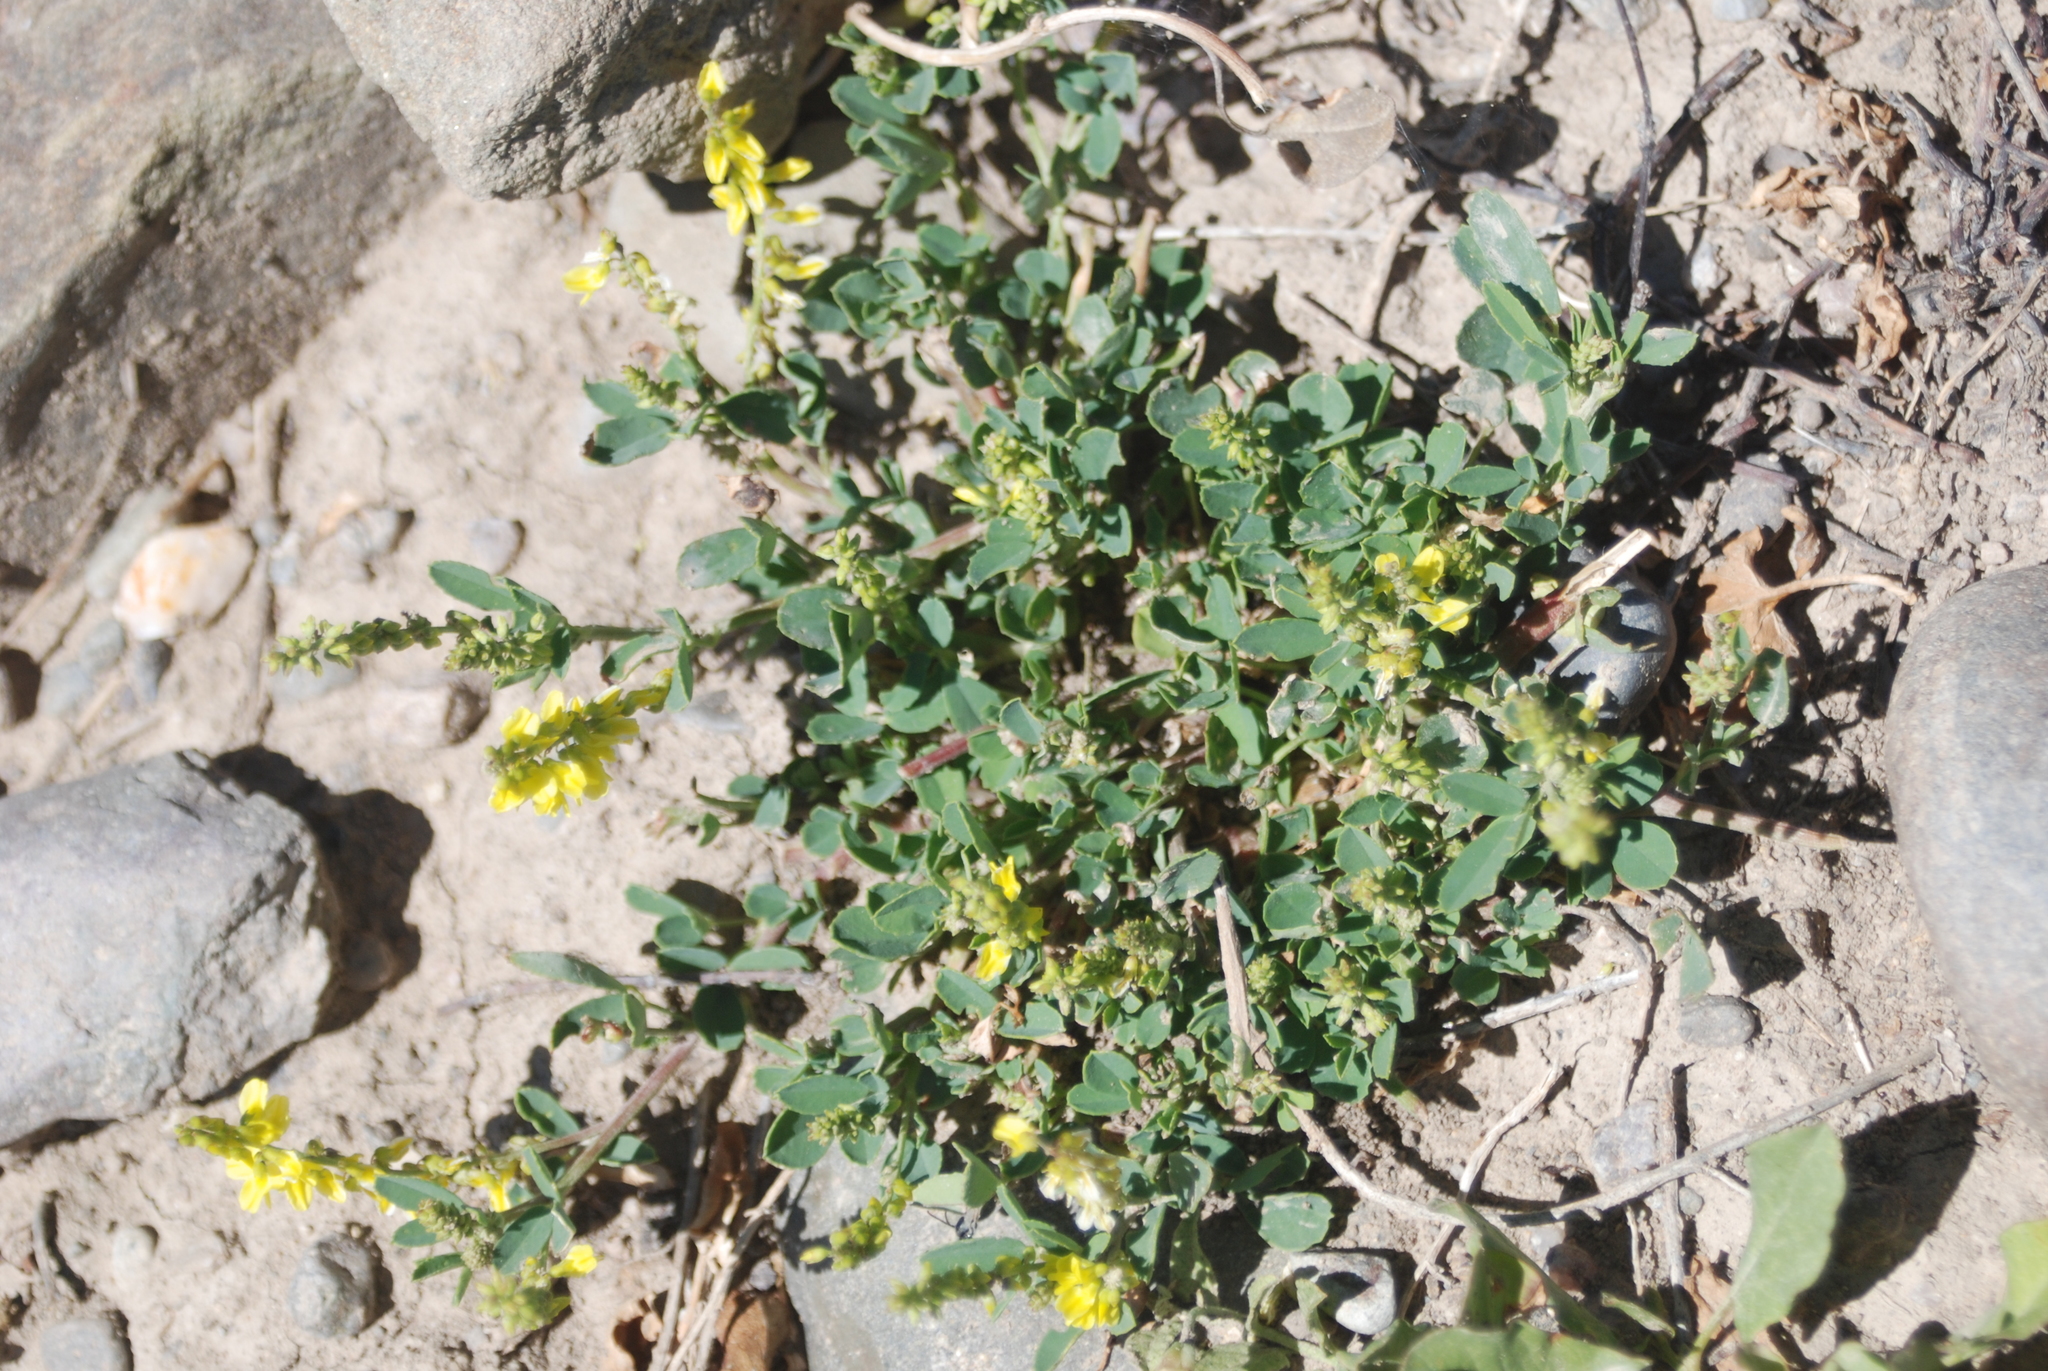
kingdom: Plantae
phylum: Tracheophyta
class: Magnoliopsida
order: Fabales
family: Fabaceae
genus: Melilotus
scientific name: Melilotus officinalis
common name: Sweetclover
